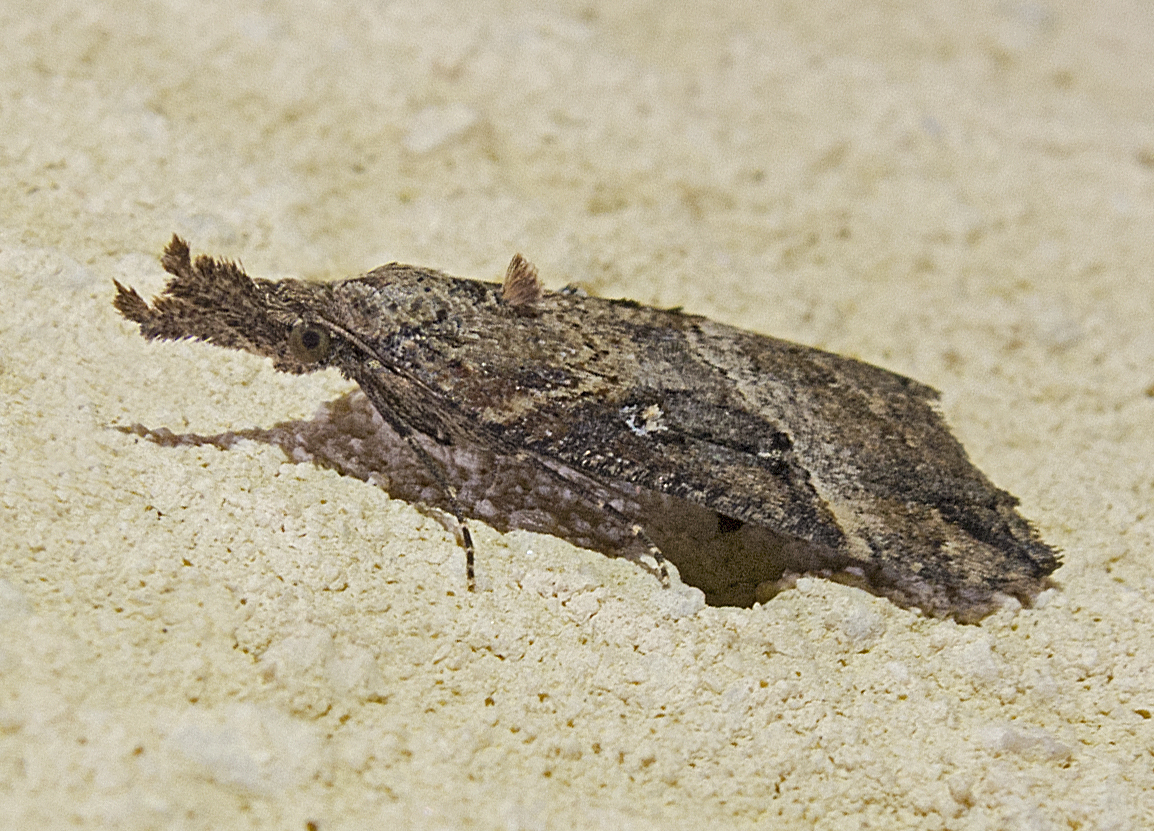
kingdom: Animalia
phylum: Arthropoda
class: Insecta
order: Lepidoptera
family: Erebidae
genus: Hypena
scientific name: Hypena rostralis
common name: Buttoned snout
